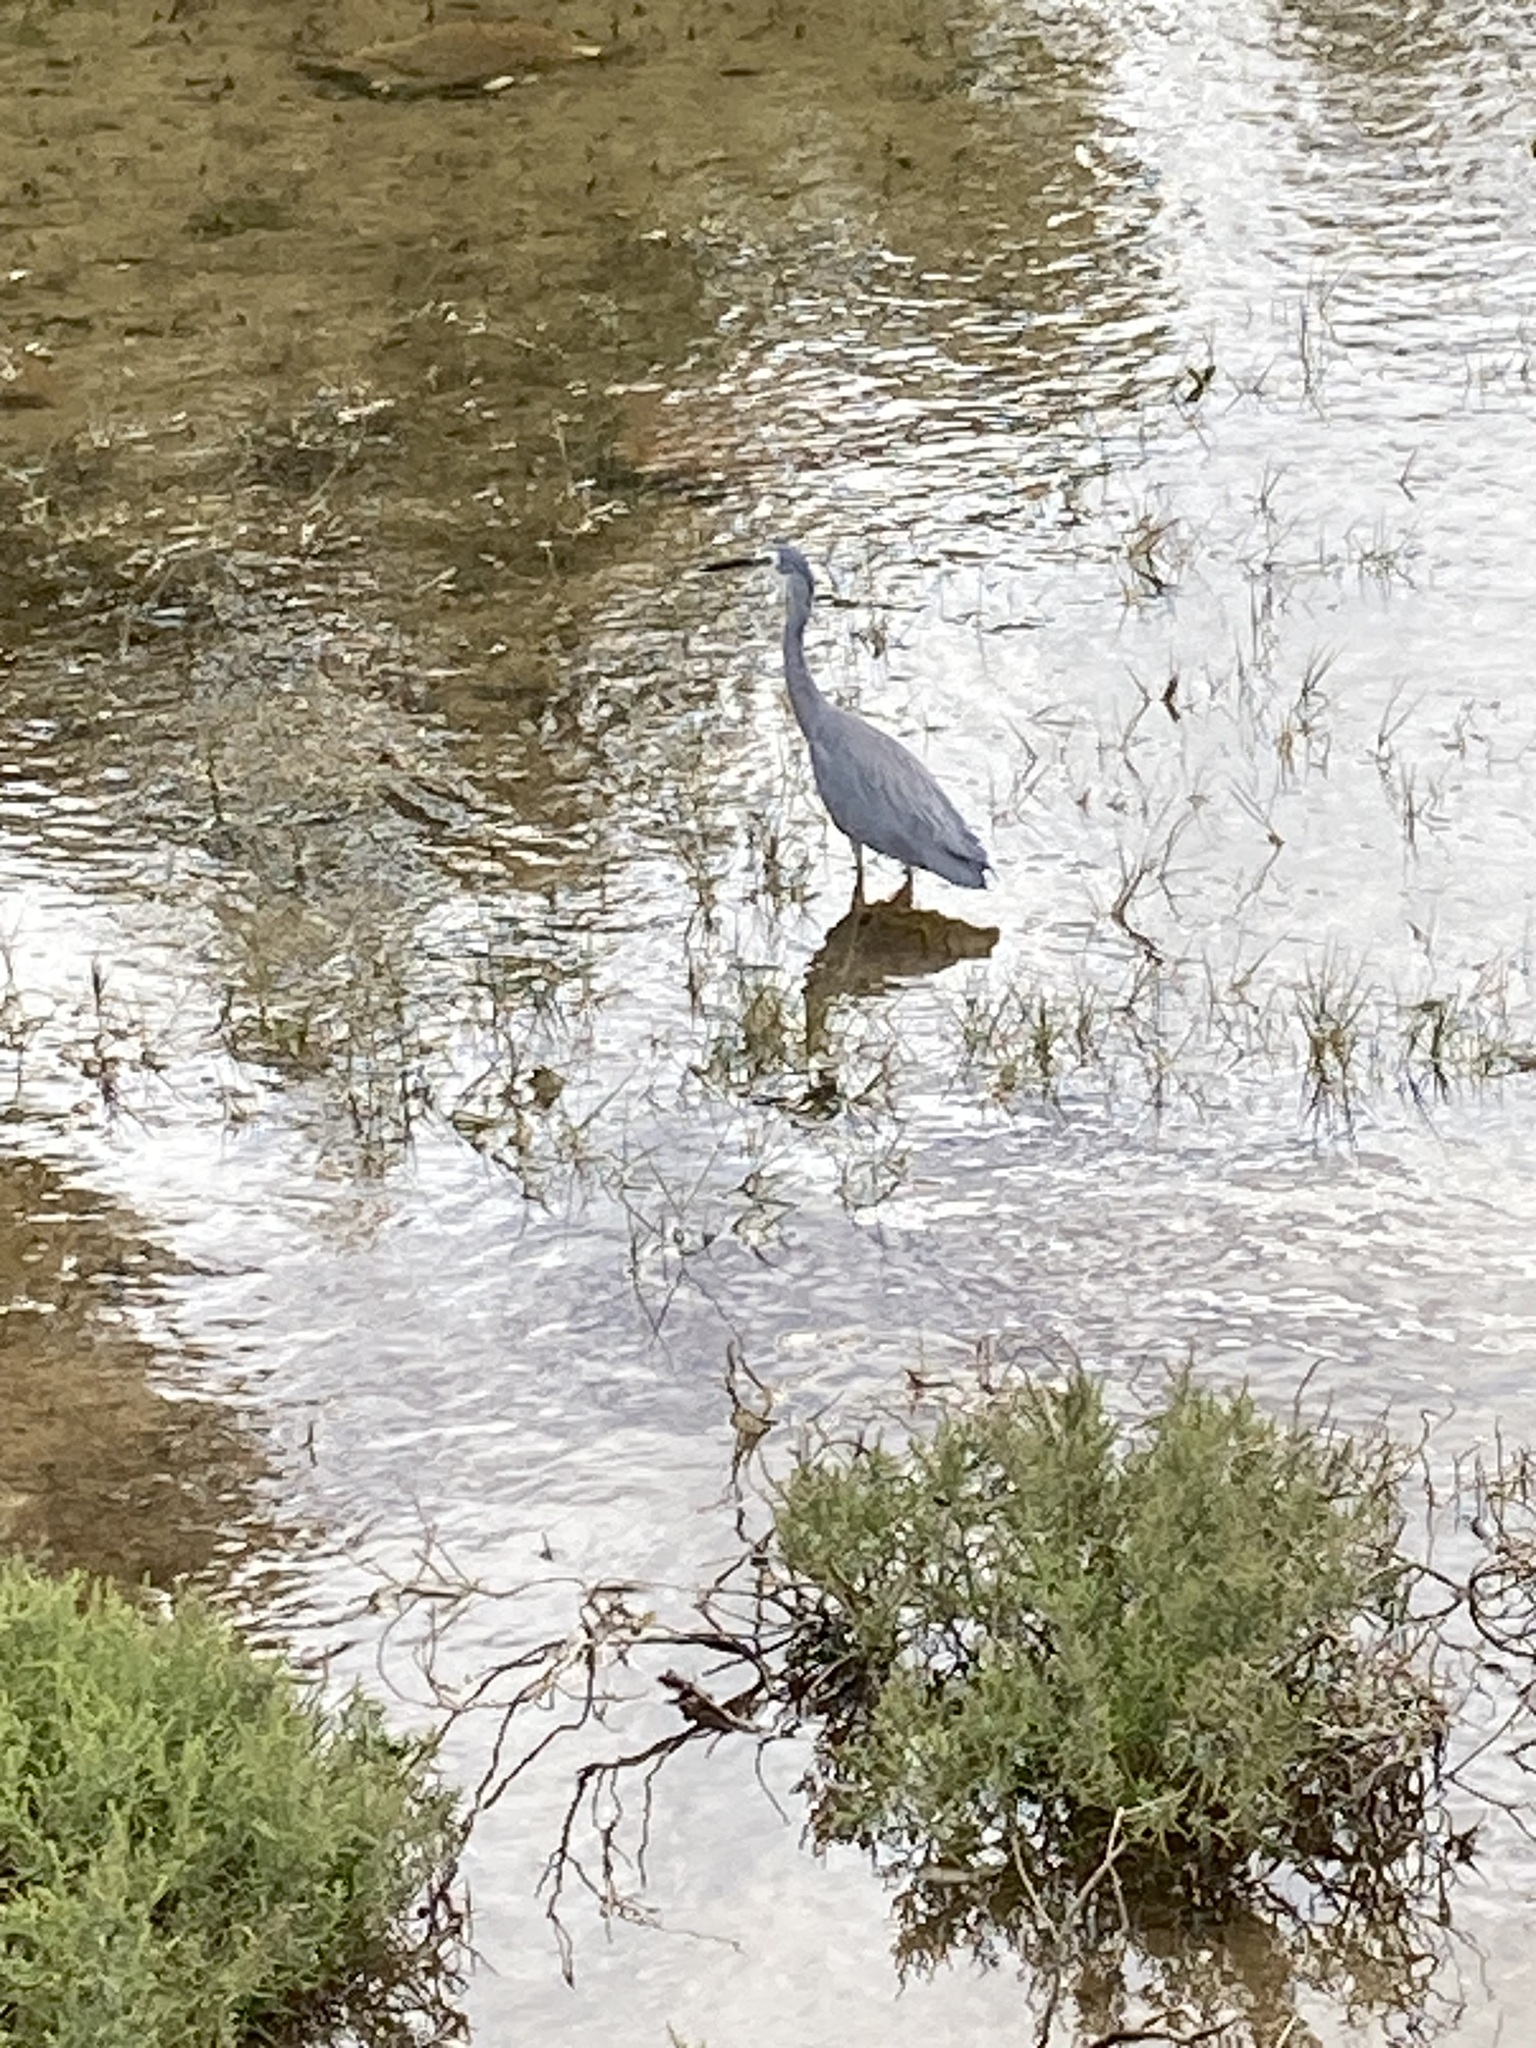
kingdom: Animalia
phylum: Chordata
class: Aves
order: Pelecaniformes
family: Ardeidae
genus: Egretta
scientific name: Egretta novaehollandiae
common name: White-faced heron
